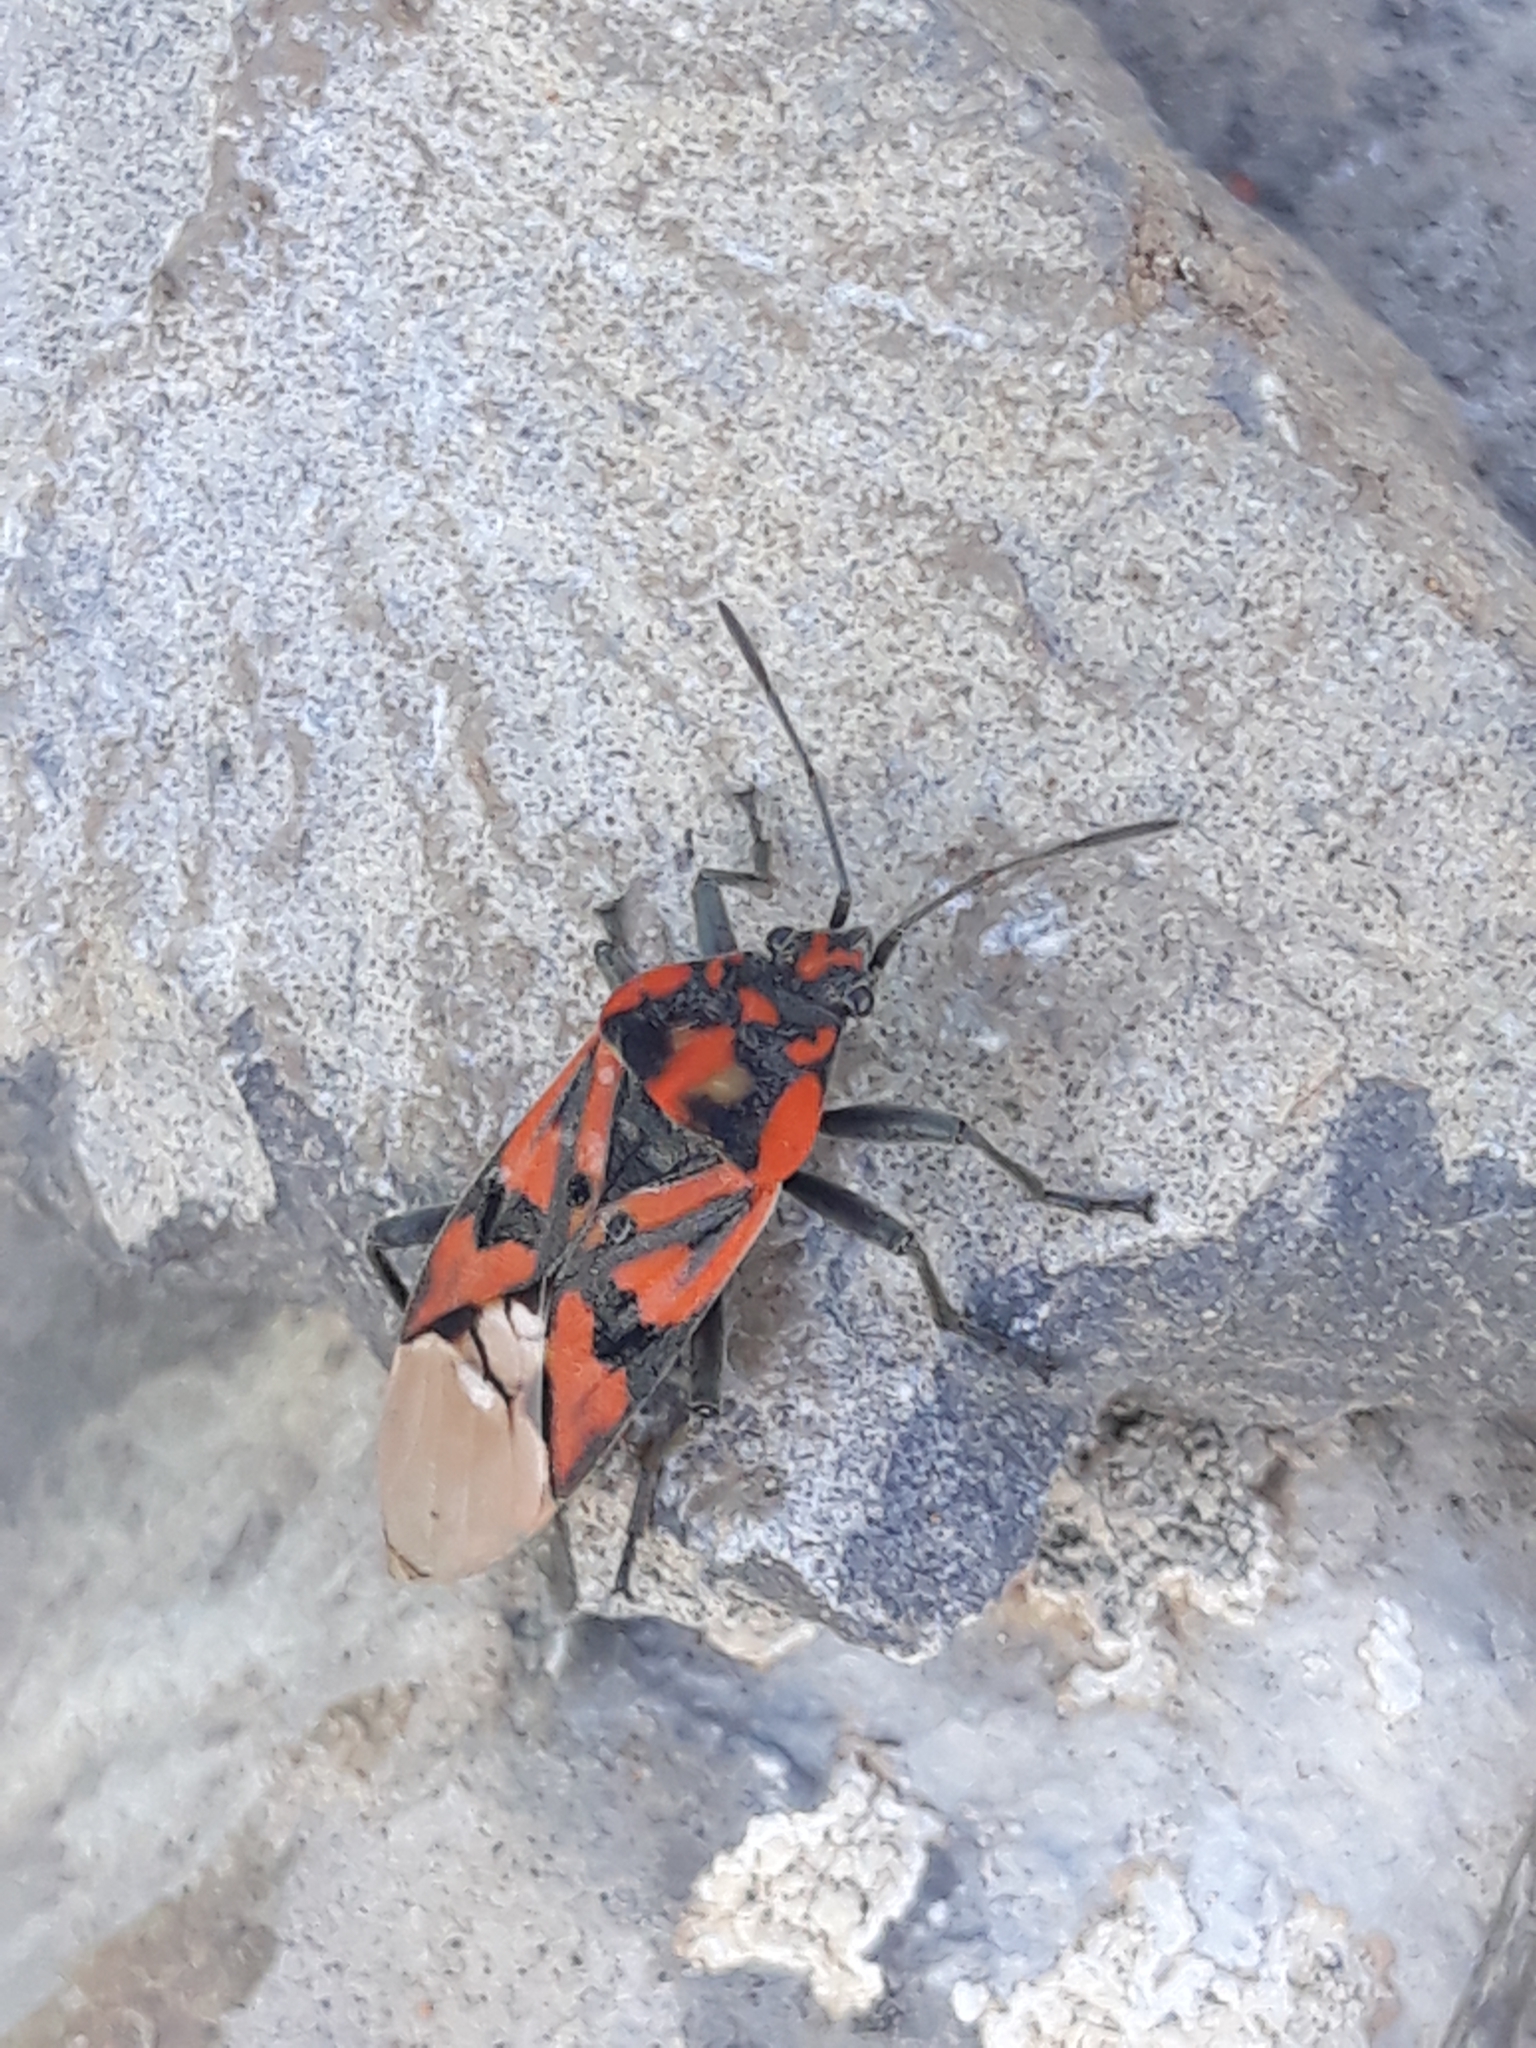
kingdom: Animalia
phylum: Arthropoda
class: Insecta
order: Hemiptera
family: Lygaeidae
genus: Spilostethus
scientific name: Spilostethus pandurus
